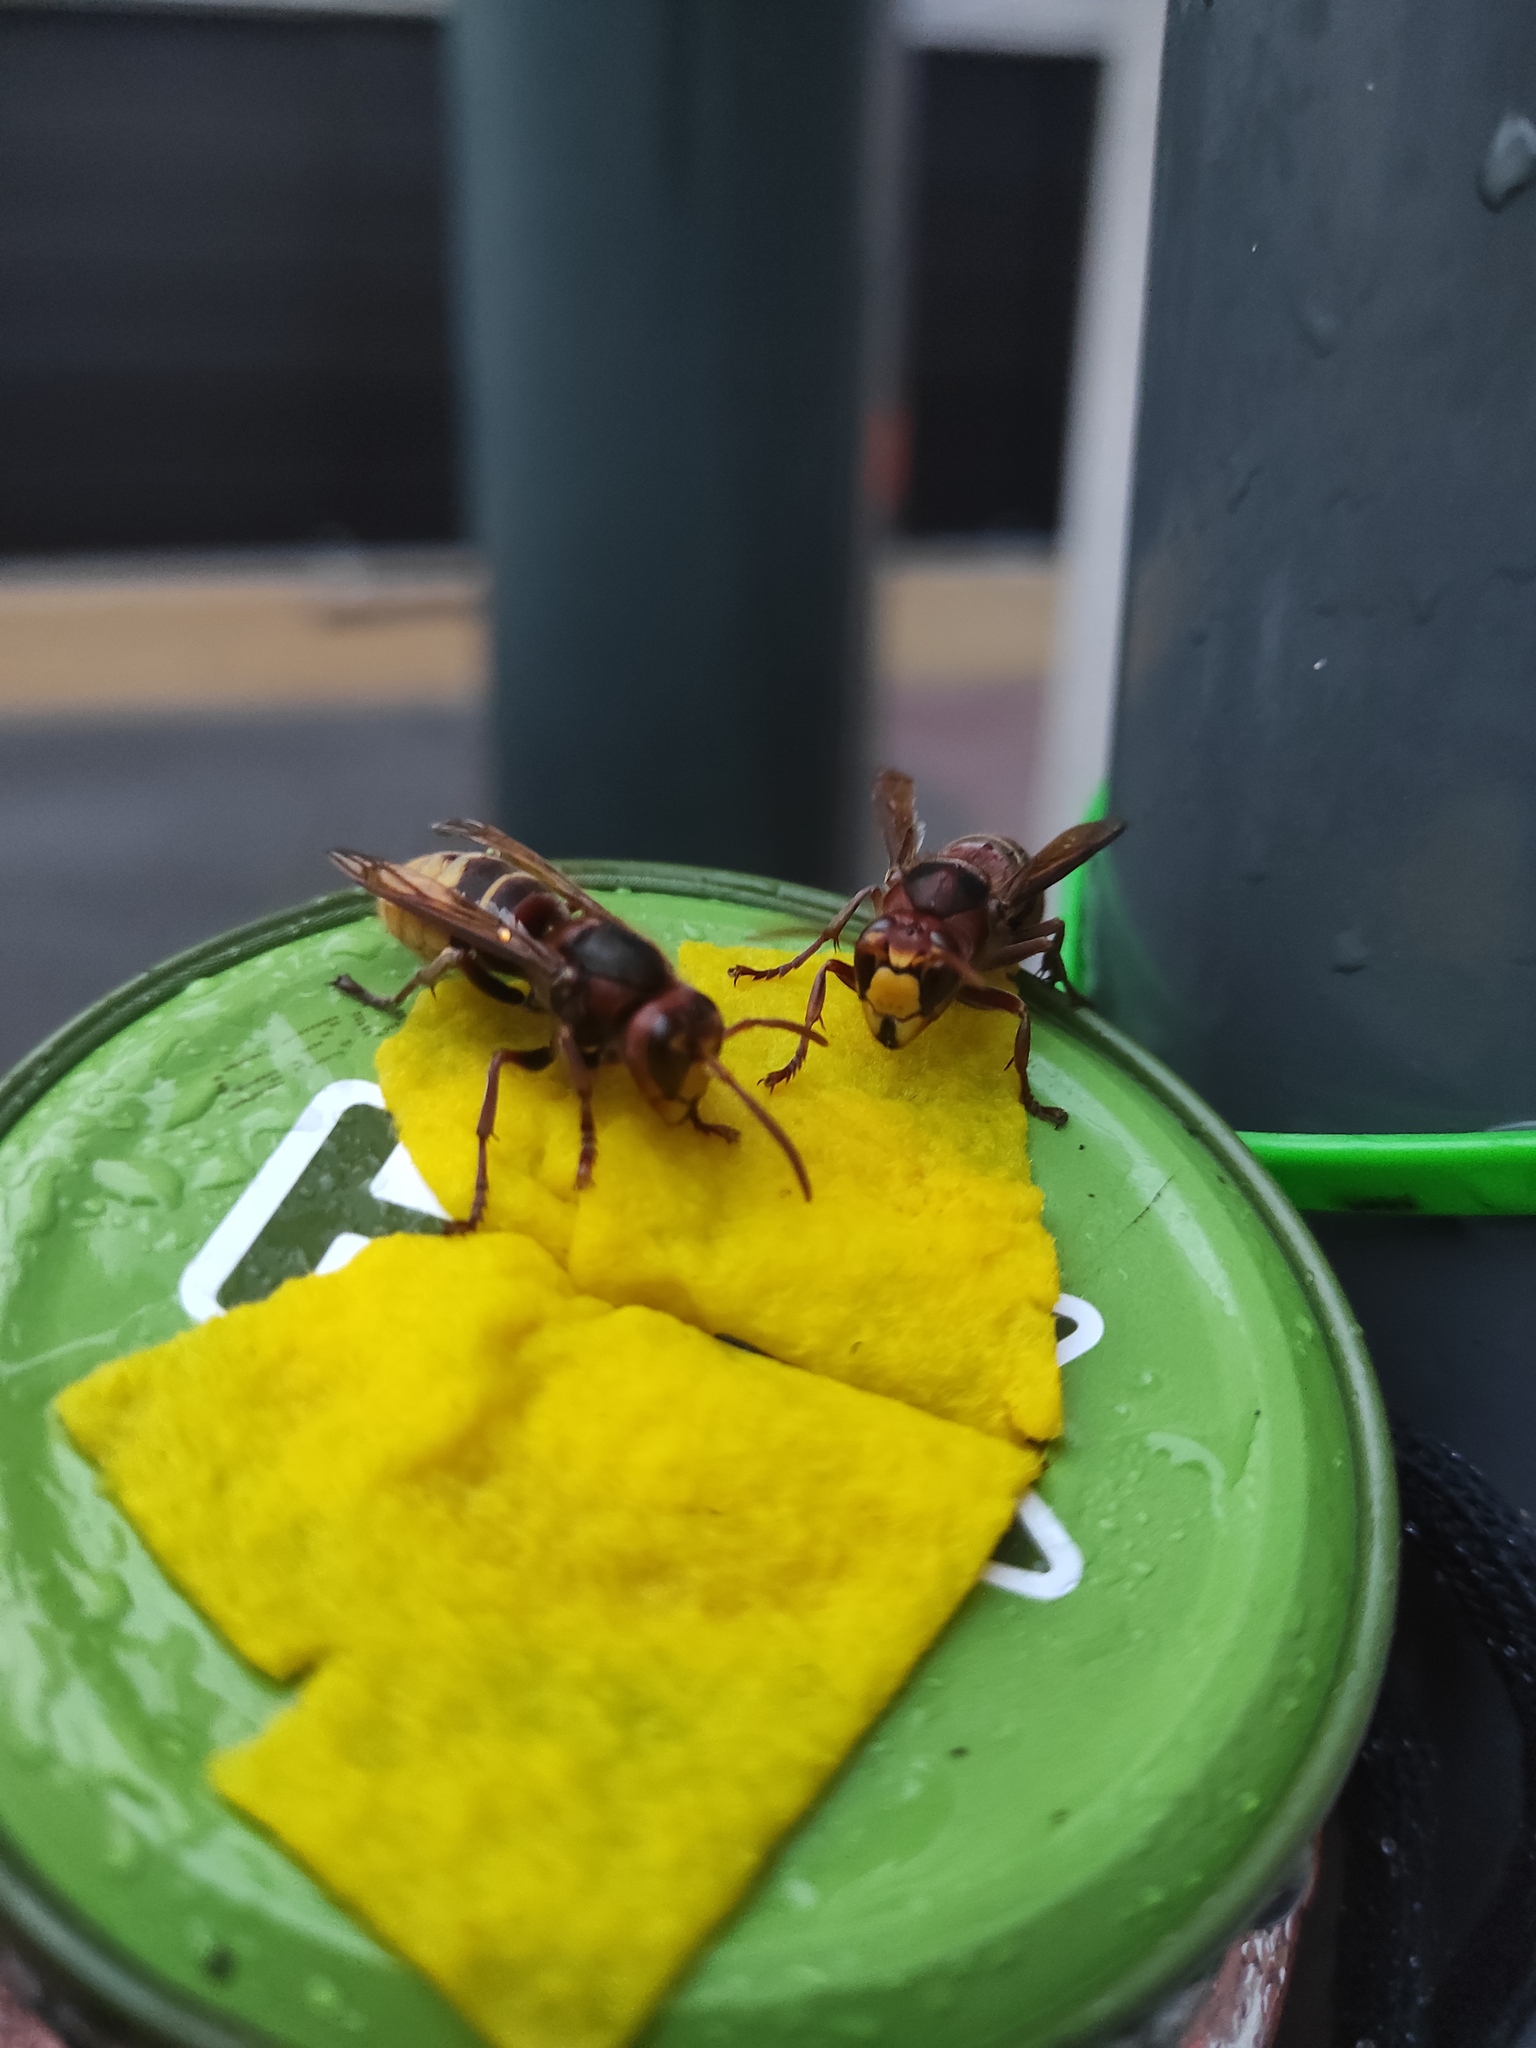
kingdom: Animalia
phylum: Arthropoda
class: Insecta
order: Hymenoptera
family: Vespidae
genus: Vespa
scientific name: Vespa crabro
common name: Hornet
